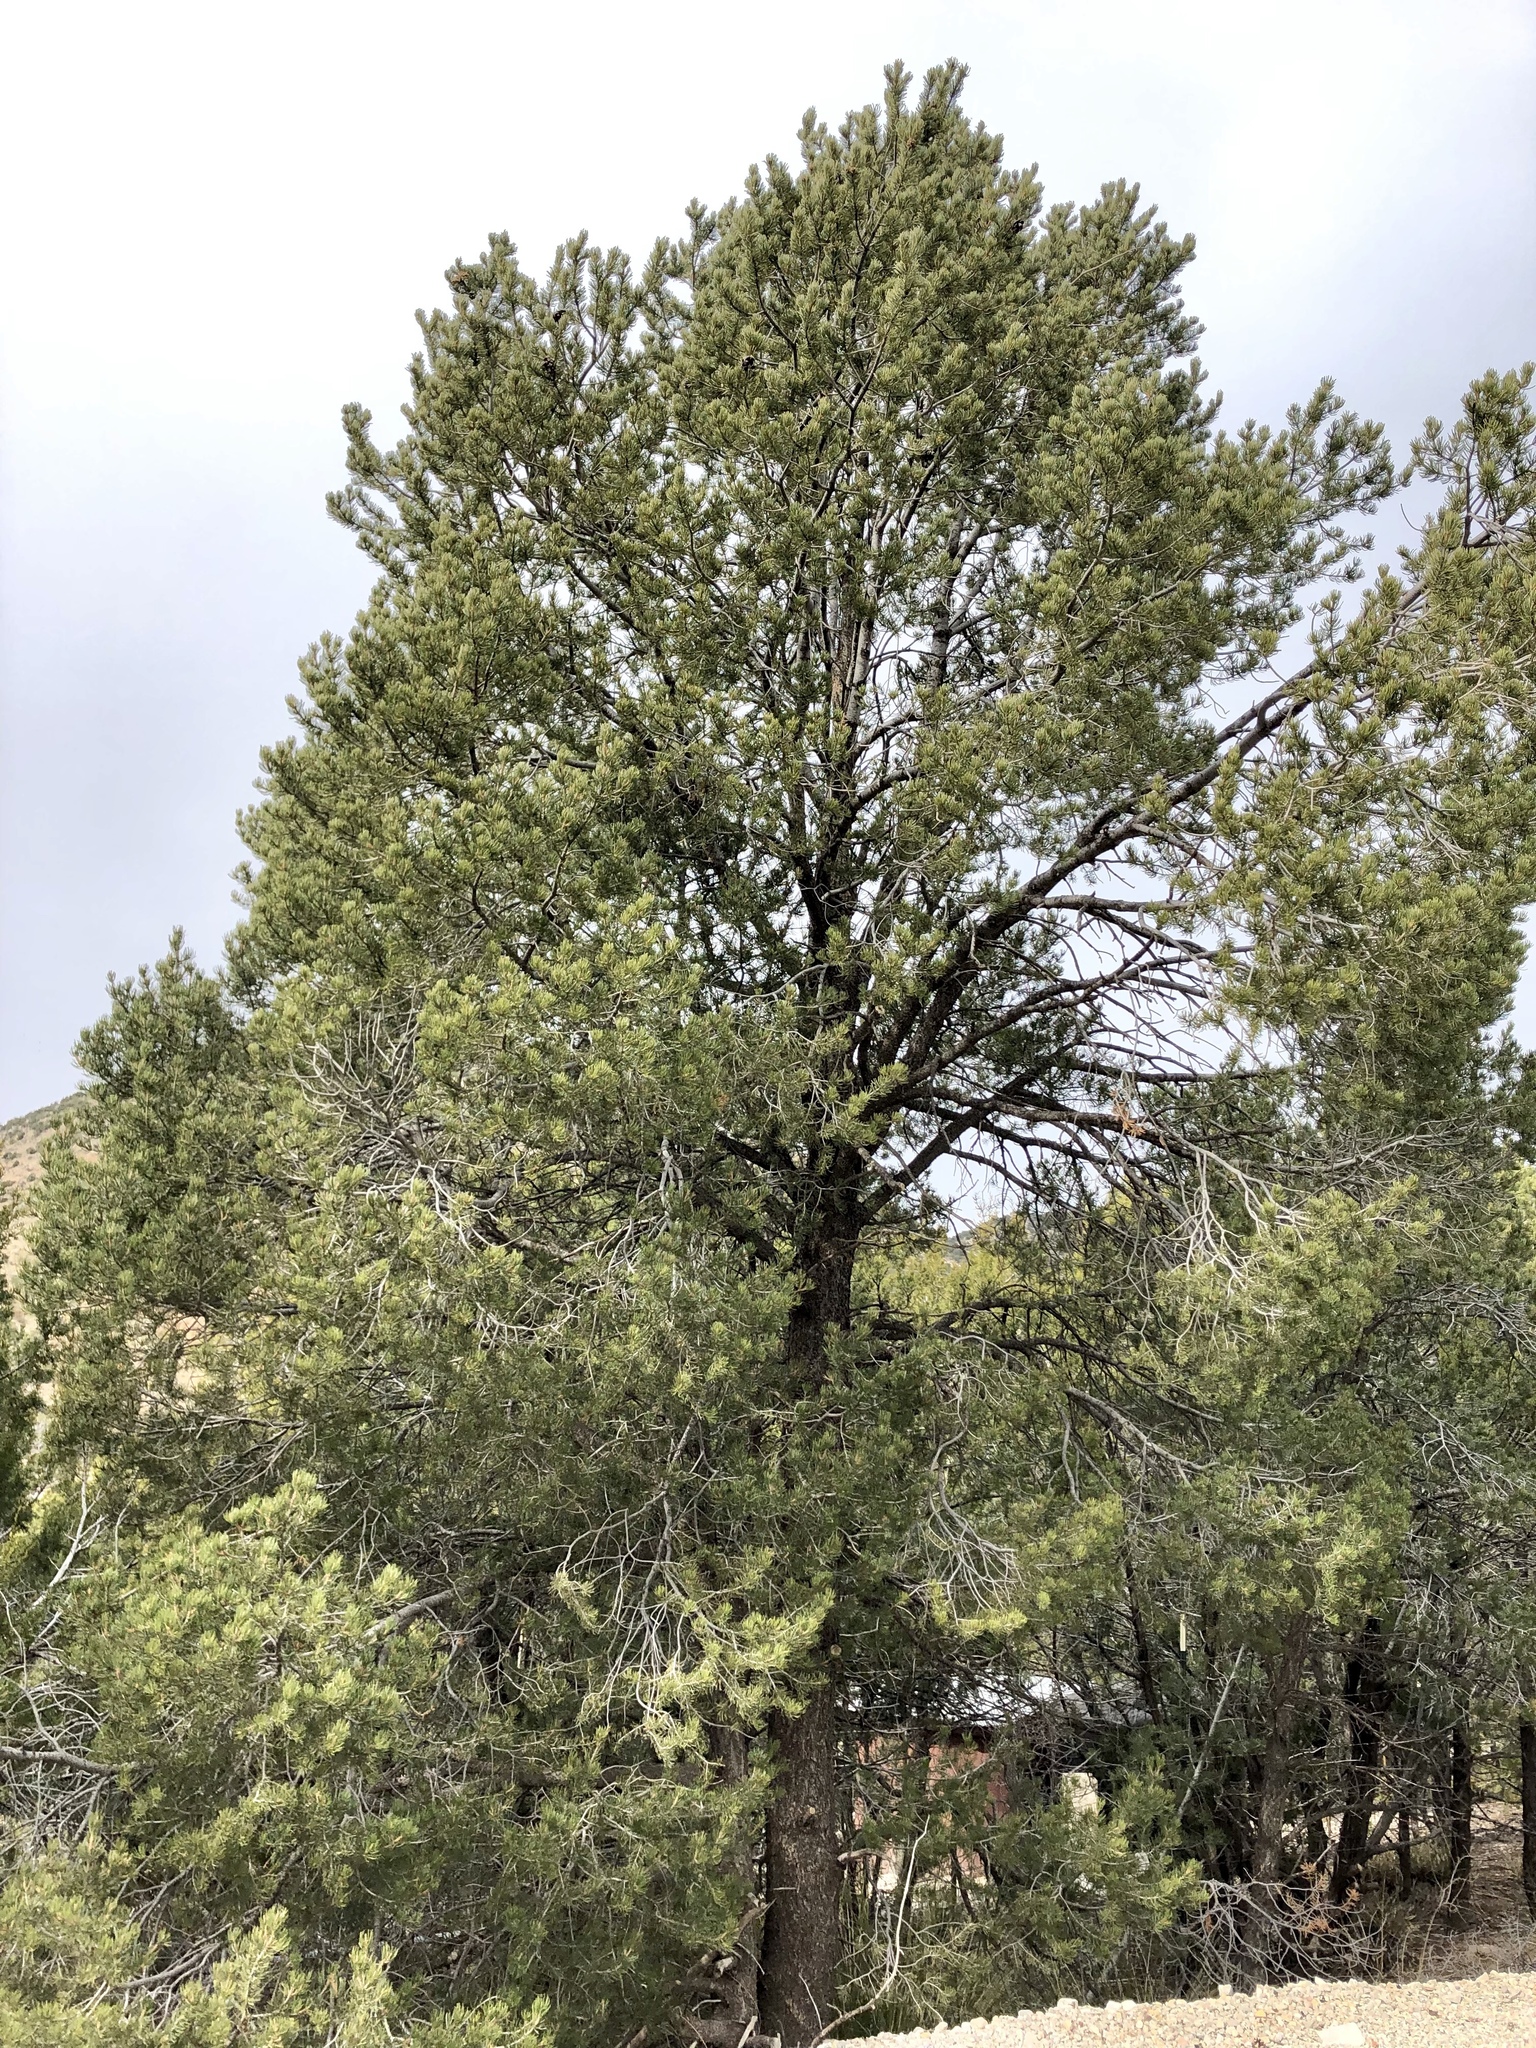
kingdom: Plantae
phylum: Tracheophyta
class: Pinopsida
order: Pinales
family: Pinaceae
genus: Pinus
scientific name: Pinus edulis
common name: Colorado pinyon
